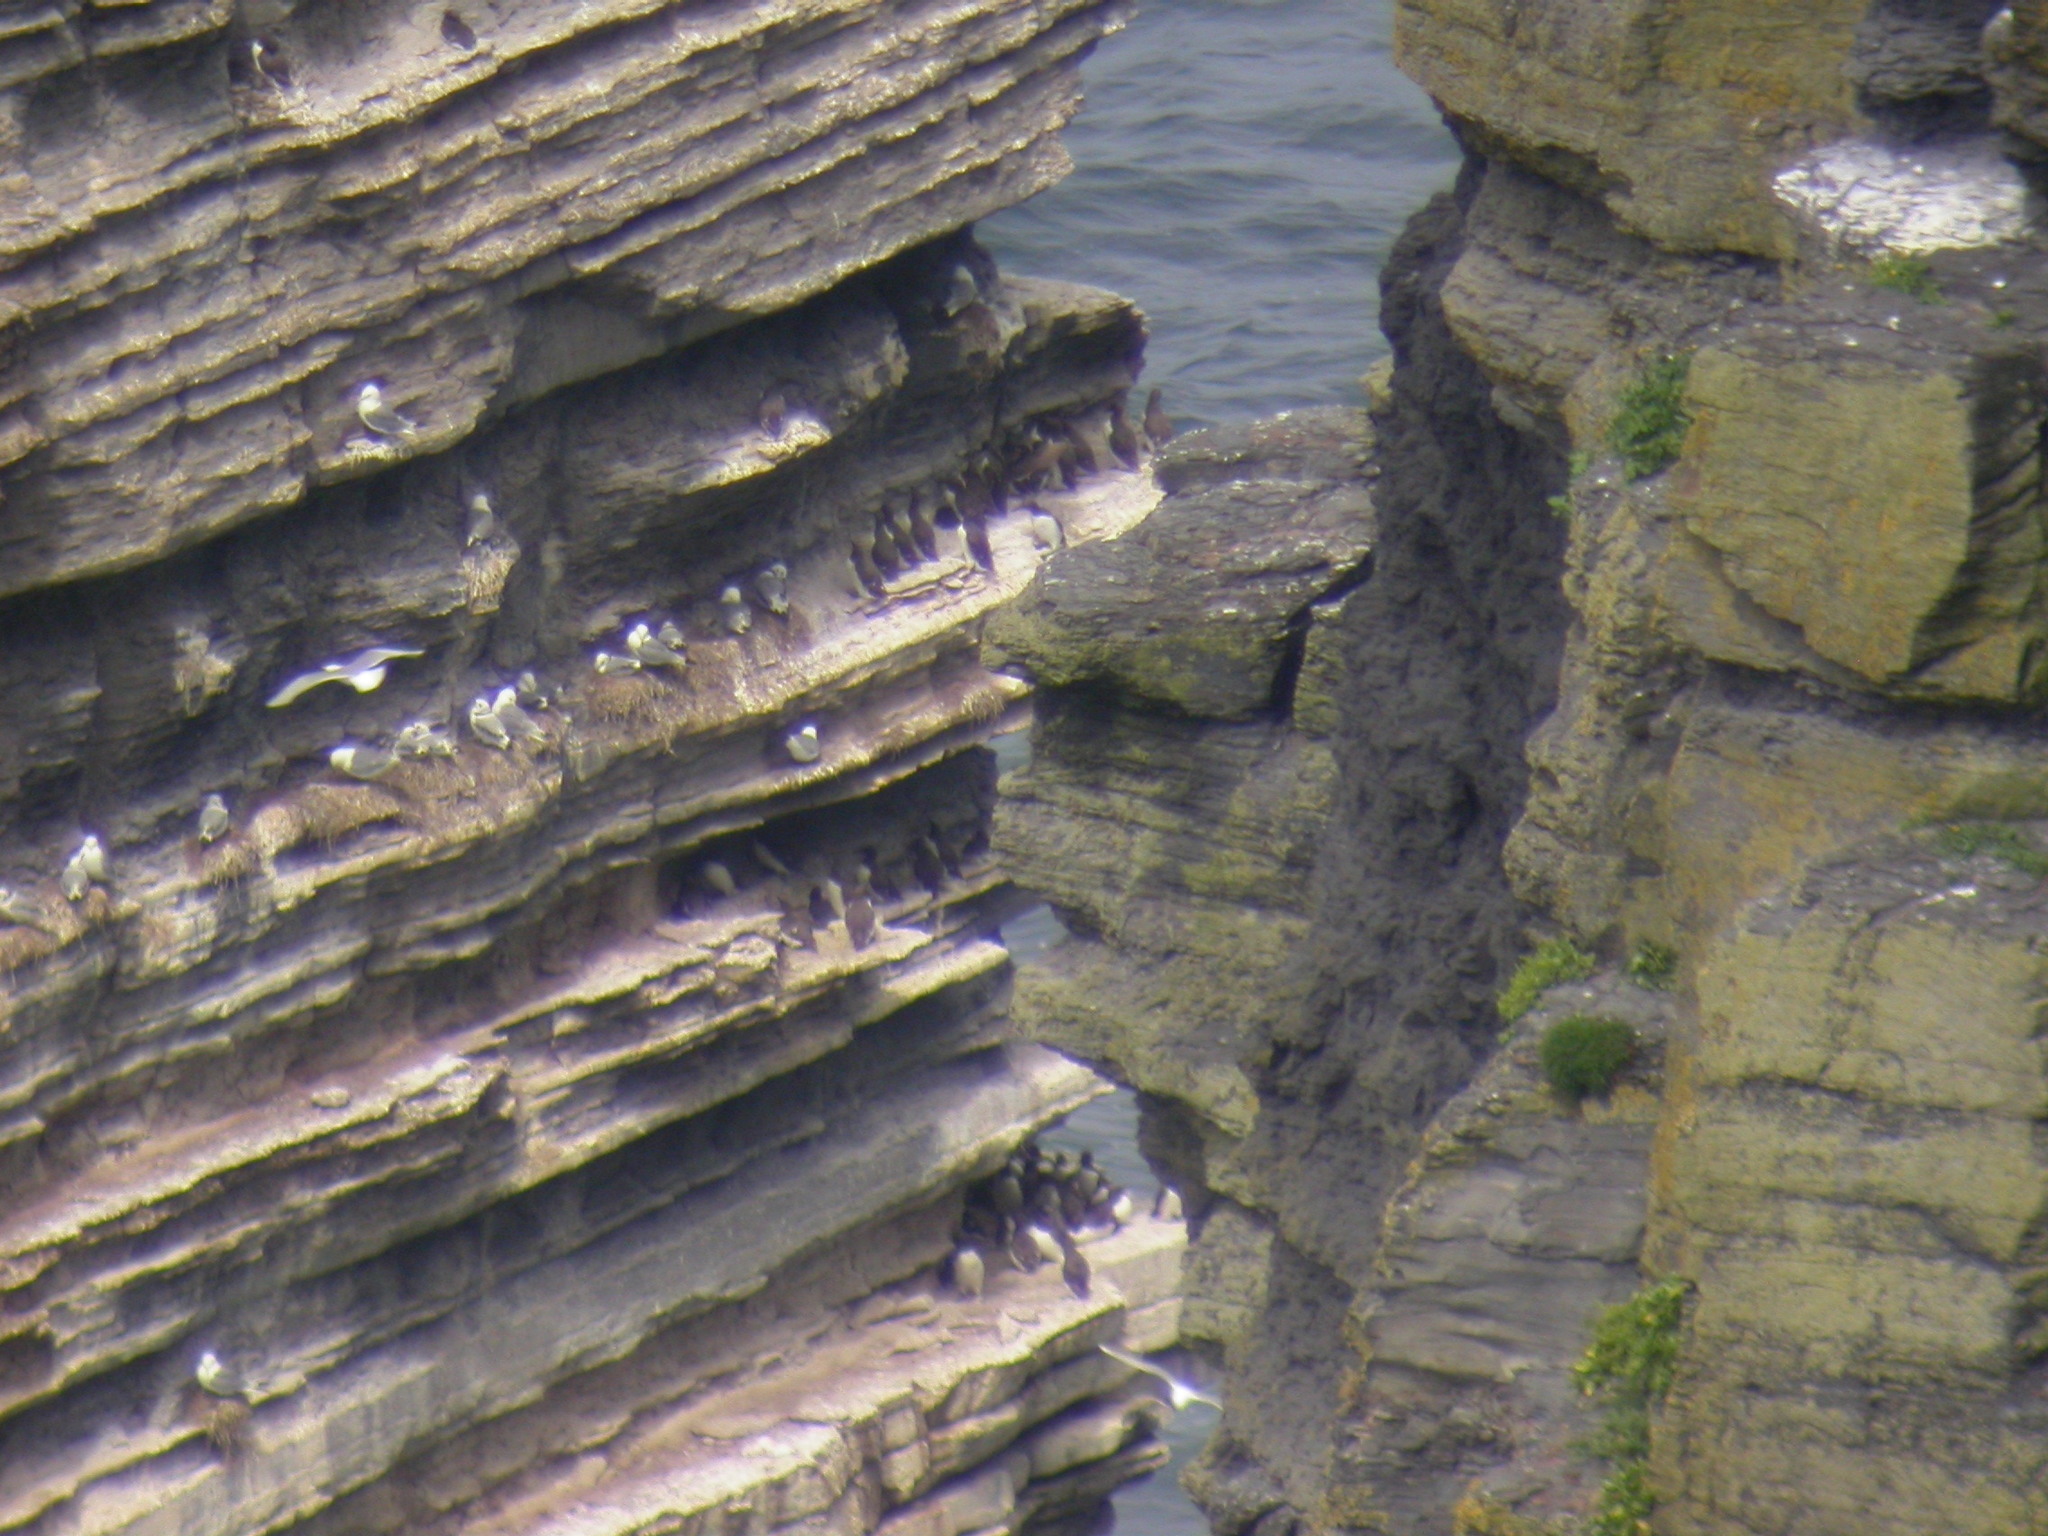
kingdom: Animalia
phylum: Chordata
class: Aves
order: Charadriiformes
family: Alcidae
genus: Uria
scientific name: Uria aalge
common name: Common murre
